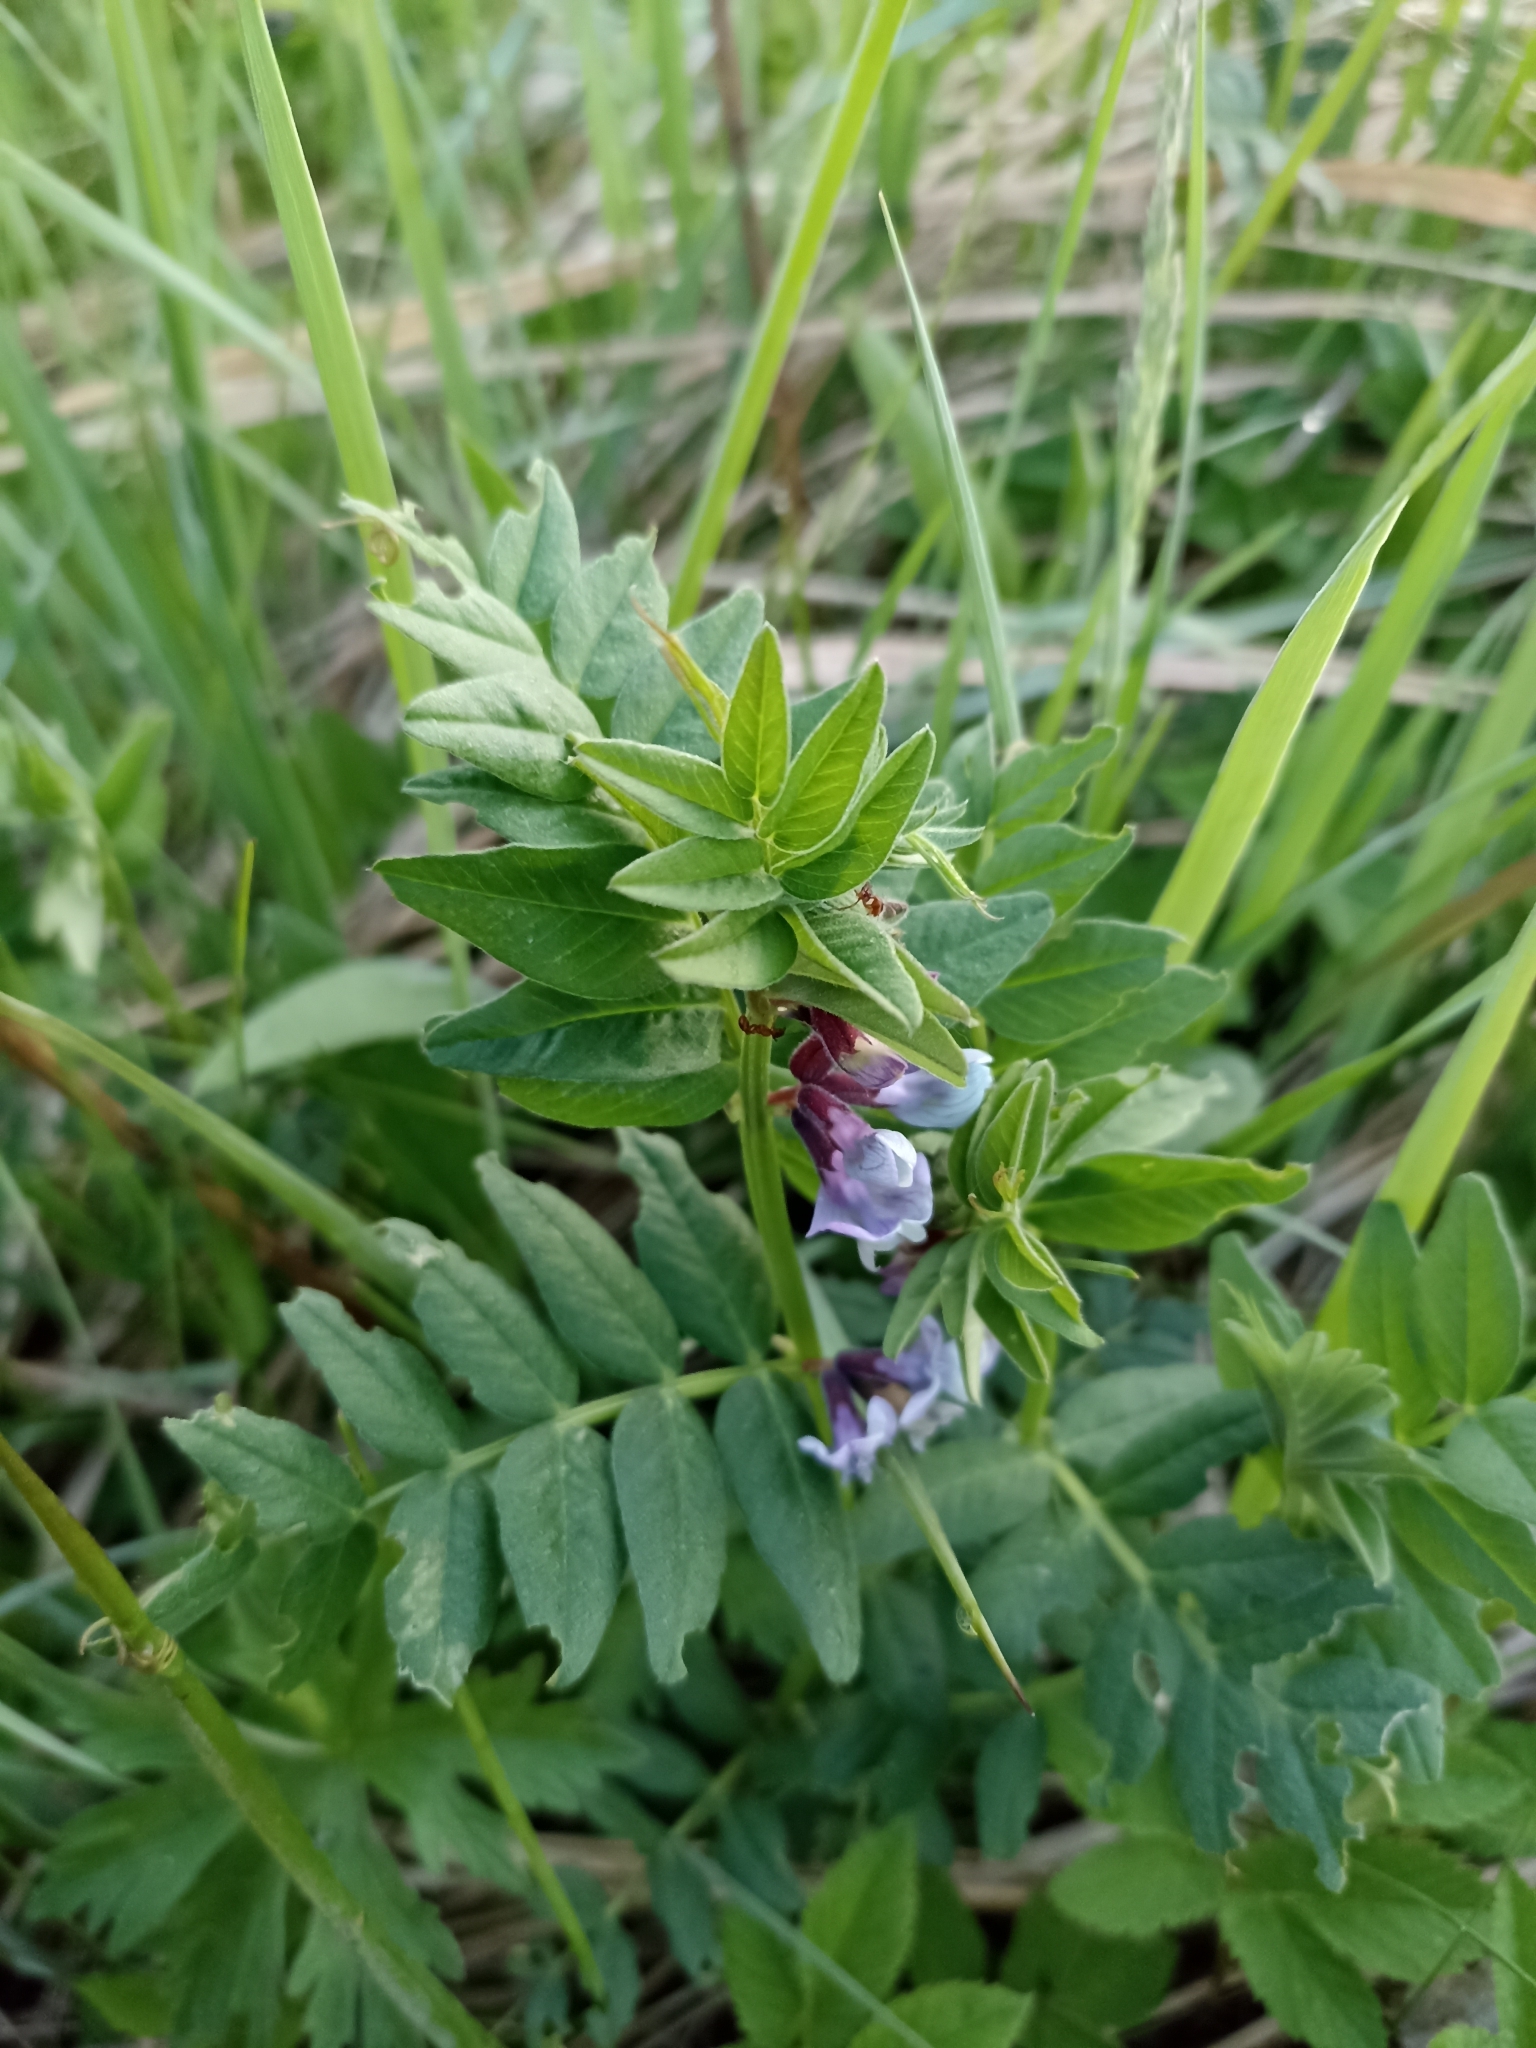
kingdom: Plantae
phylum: Tracheophyta
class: Magnoliopsida
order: Fabales
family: Fabaceae
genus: Vicia
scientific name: Vicia sepium
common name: Bush vetch
